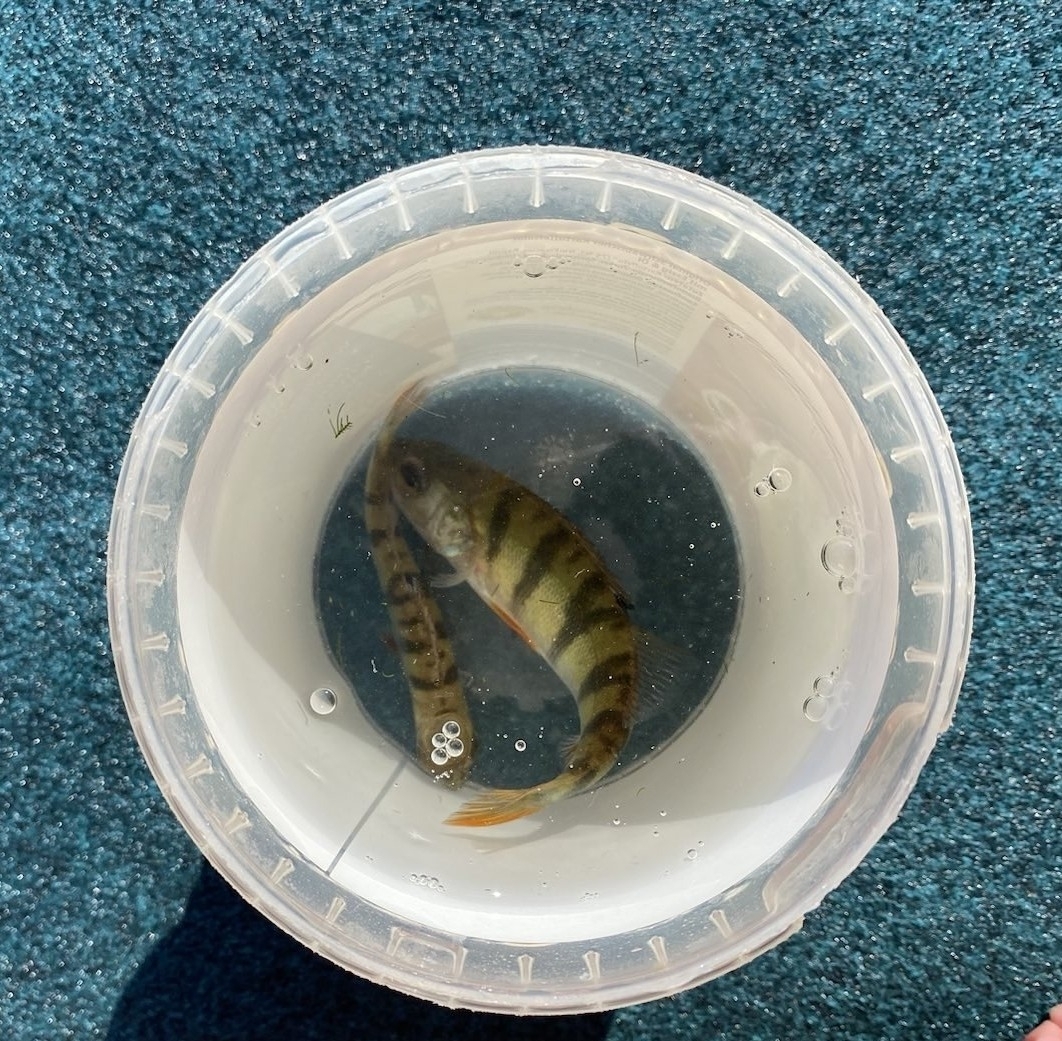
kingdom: Animalia
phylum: Chordata
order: Perciformes
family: Percidae
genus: Perca
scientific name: Perca fluviatilis
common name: Perch
